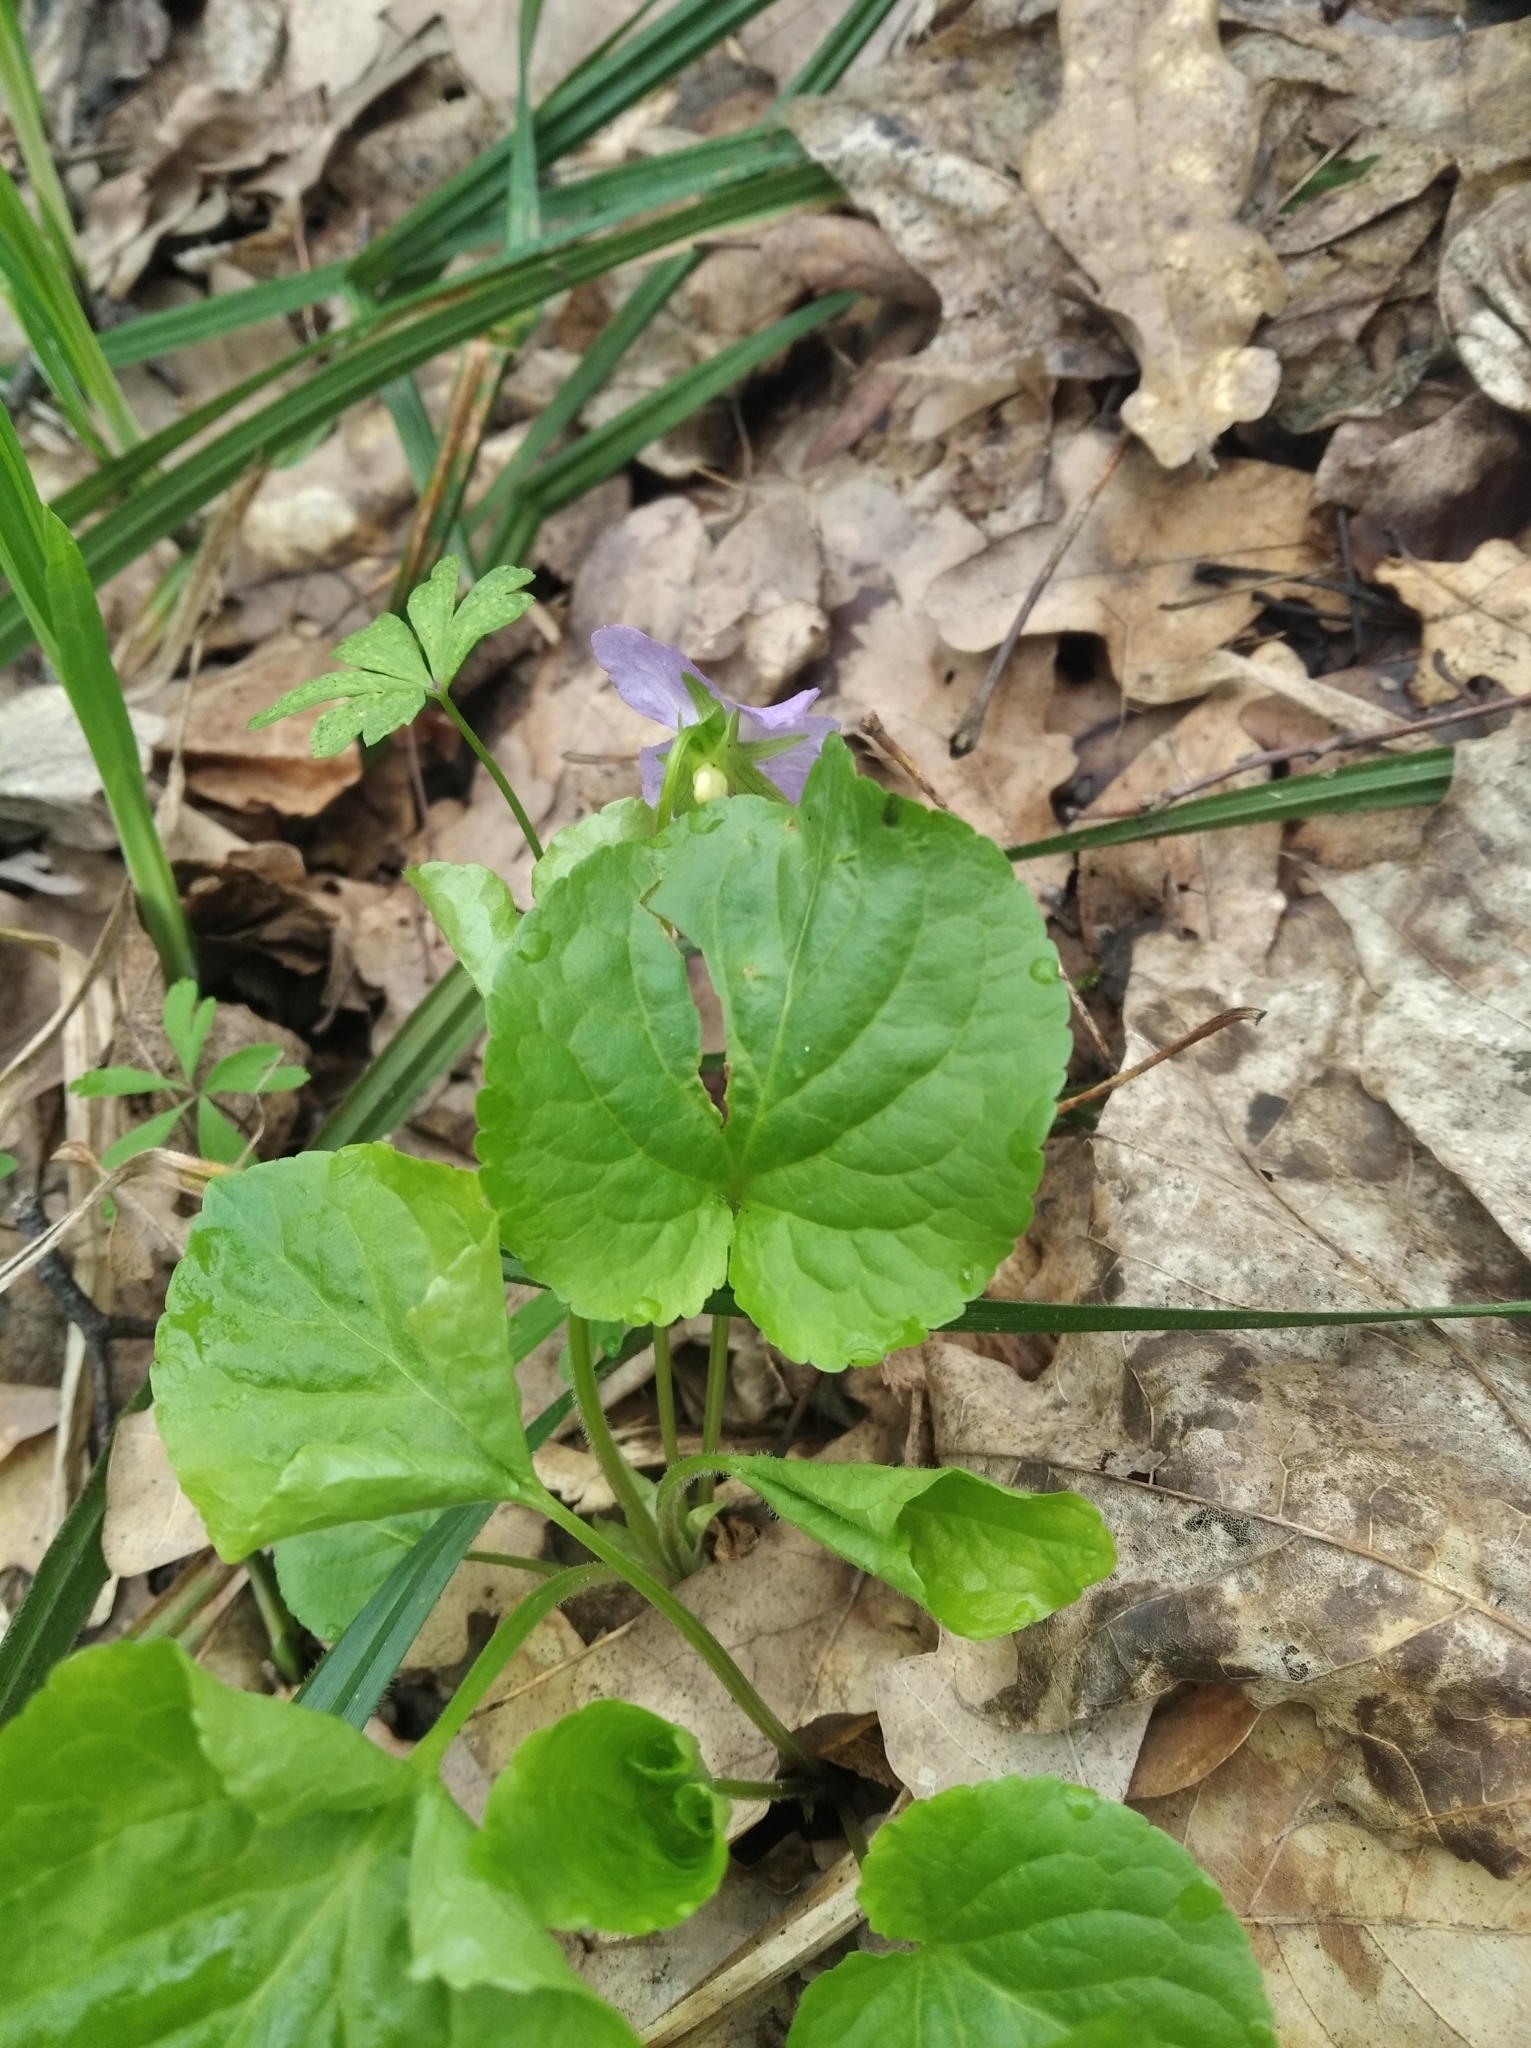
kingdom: Plantae
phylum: Tracheophyta
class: Magnoliopsida
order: Malpighiales
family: Violaceae
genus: Viola
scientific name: Viola mirabilis
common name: Wonder violet
